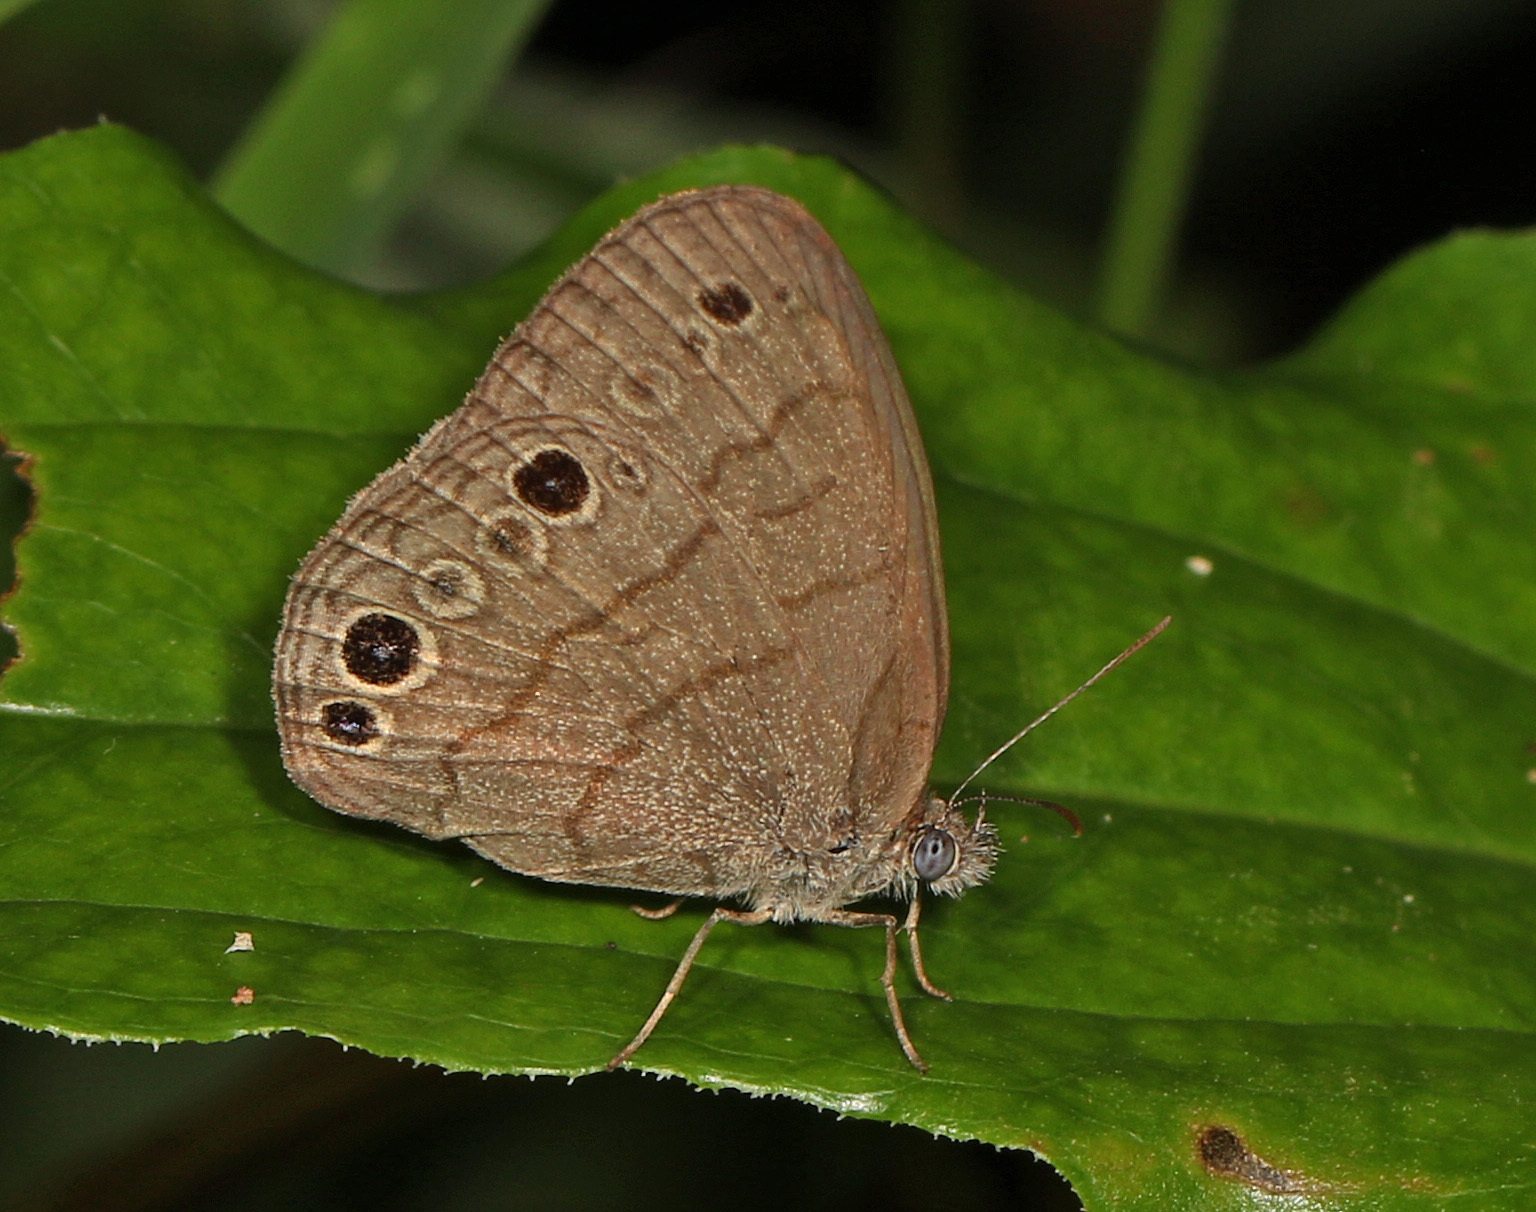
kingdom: Animalia
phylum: Arthropoda
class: Insecta
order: Lepidoptera
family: Nymphalidae
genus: Hermeuptychia
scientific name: Hermeuptychia intricata
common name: Intricate satyr
